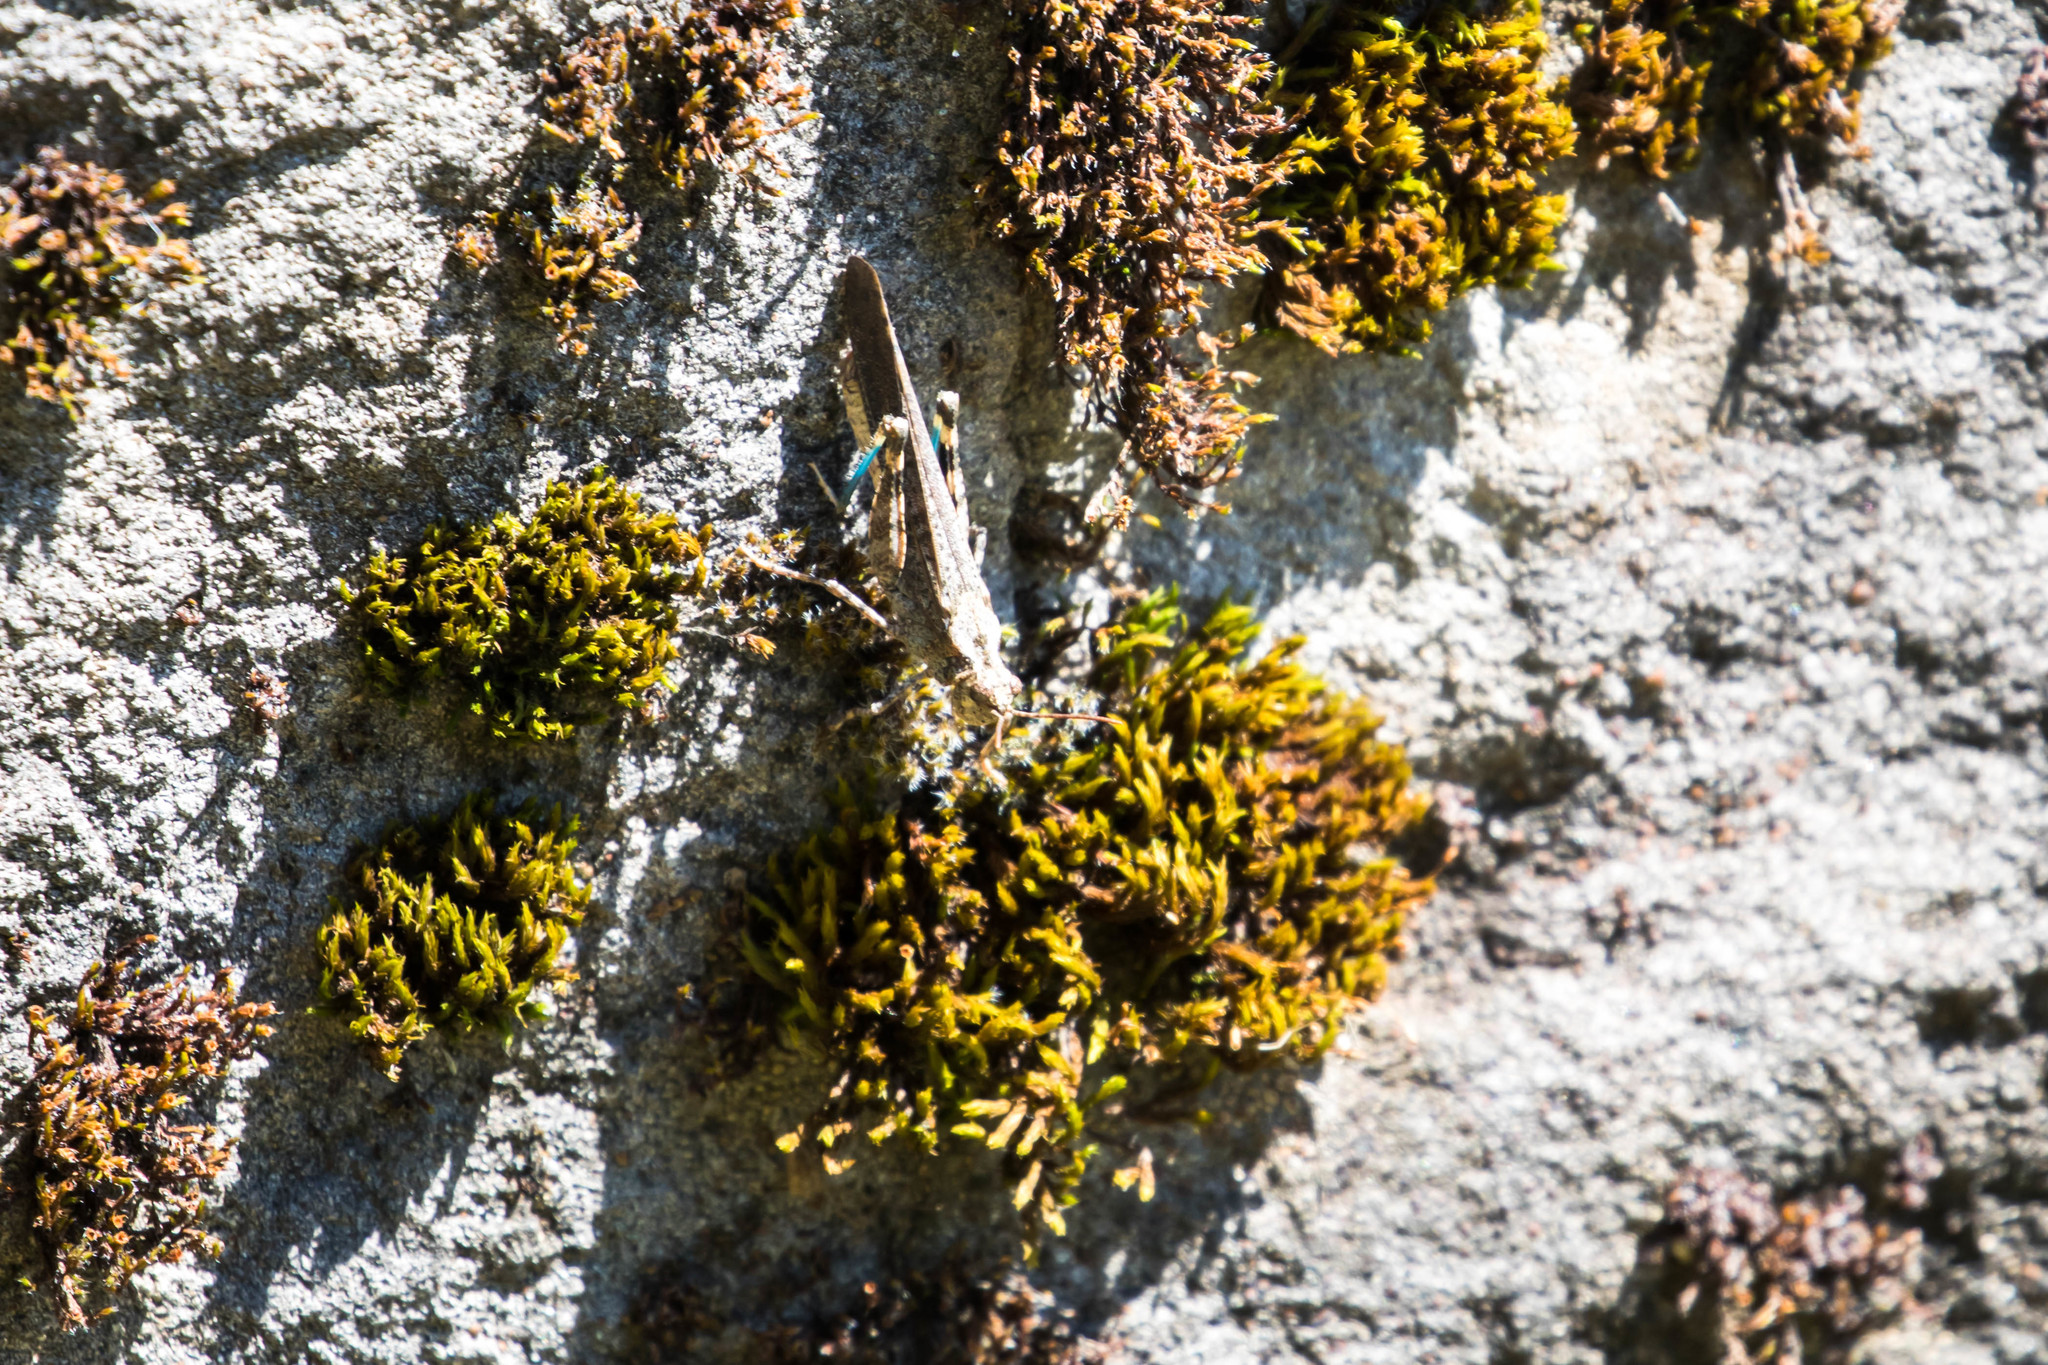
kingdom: Animalia
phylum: Arthropoda
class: Insecta
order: Orthoptera
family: Acrididae
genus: Trimerotropis
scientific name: Trimerotropis verruculata
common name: Crackling forest grasshopper
